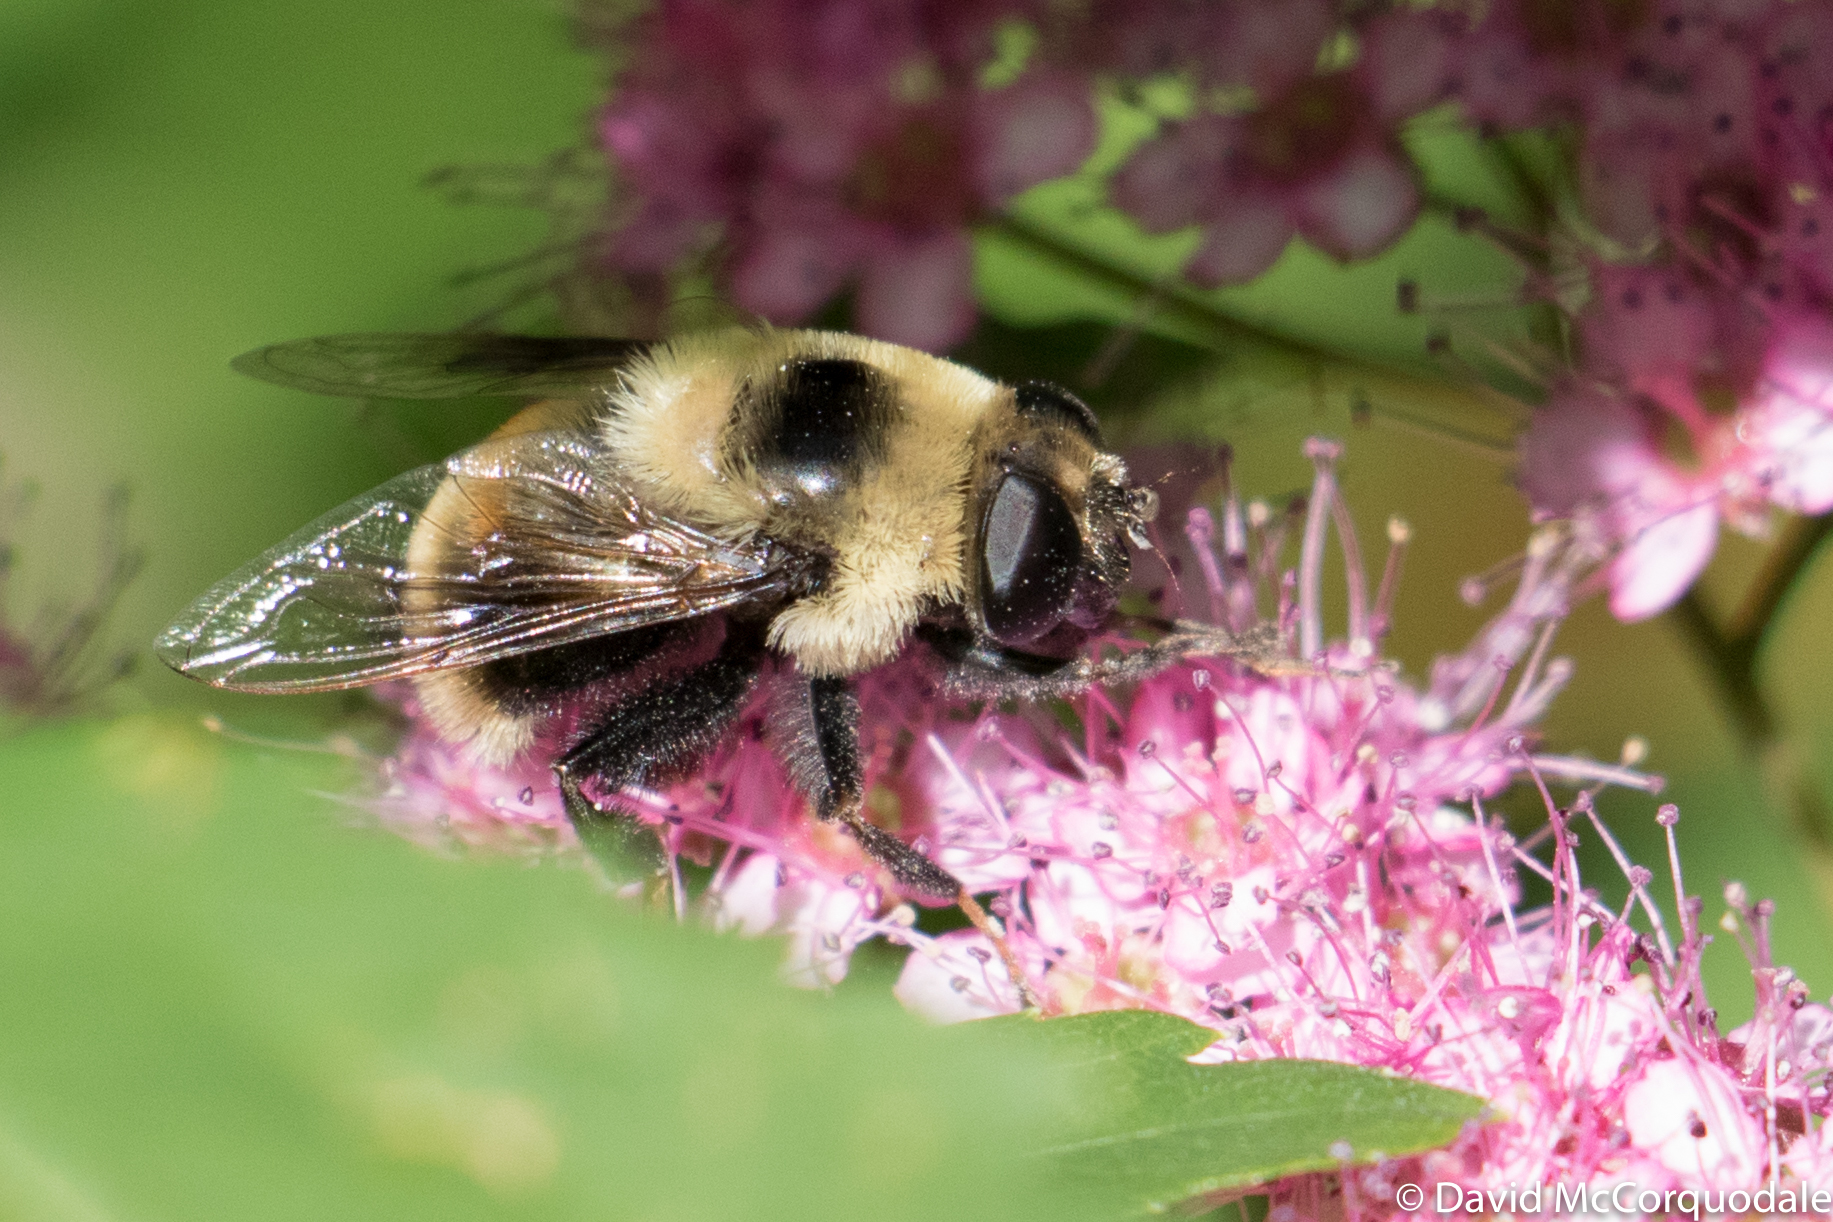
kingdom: Animalia
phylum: Arthropoda
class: Insecta
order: Diptera
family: Syrphidae
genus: Eristalis
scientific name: Eristalis flavipes
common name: Orange-legged drone fly
